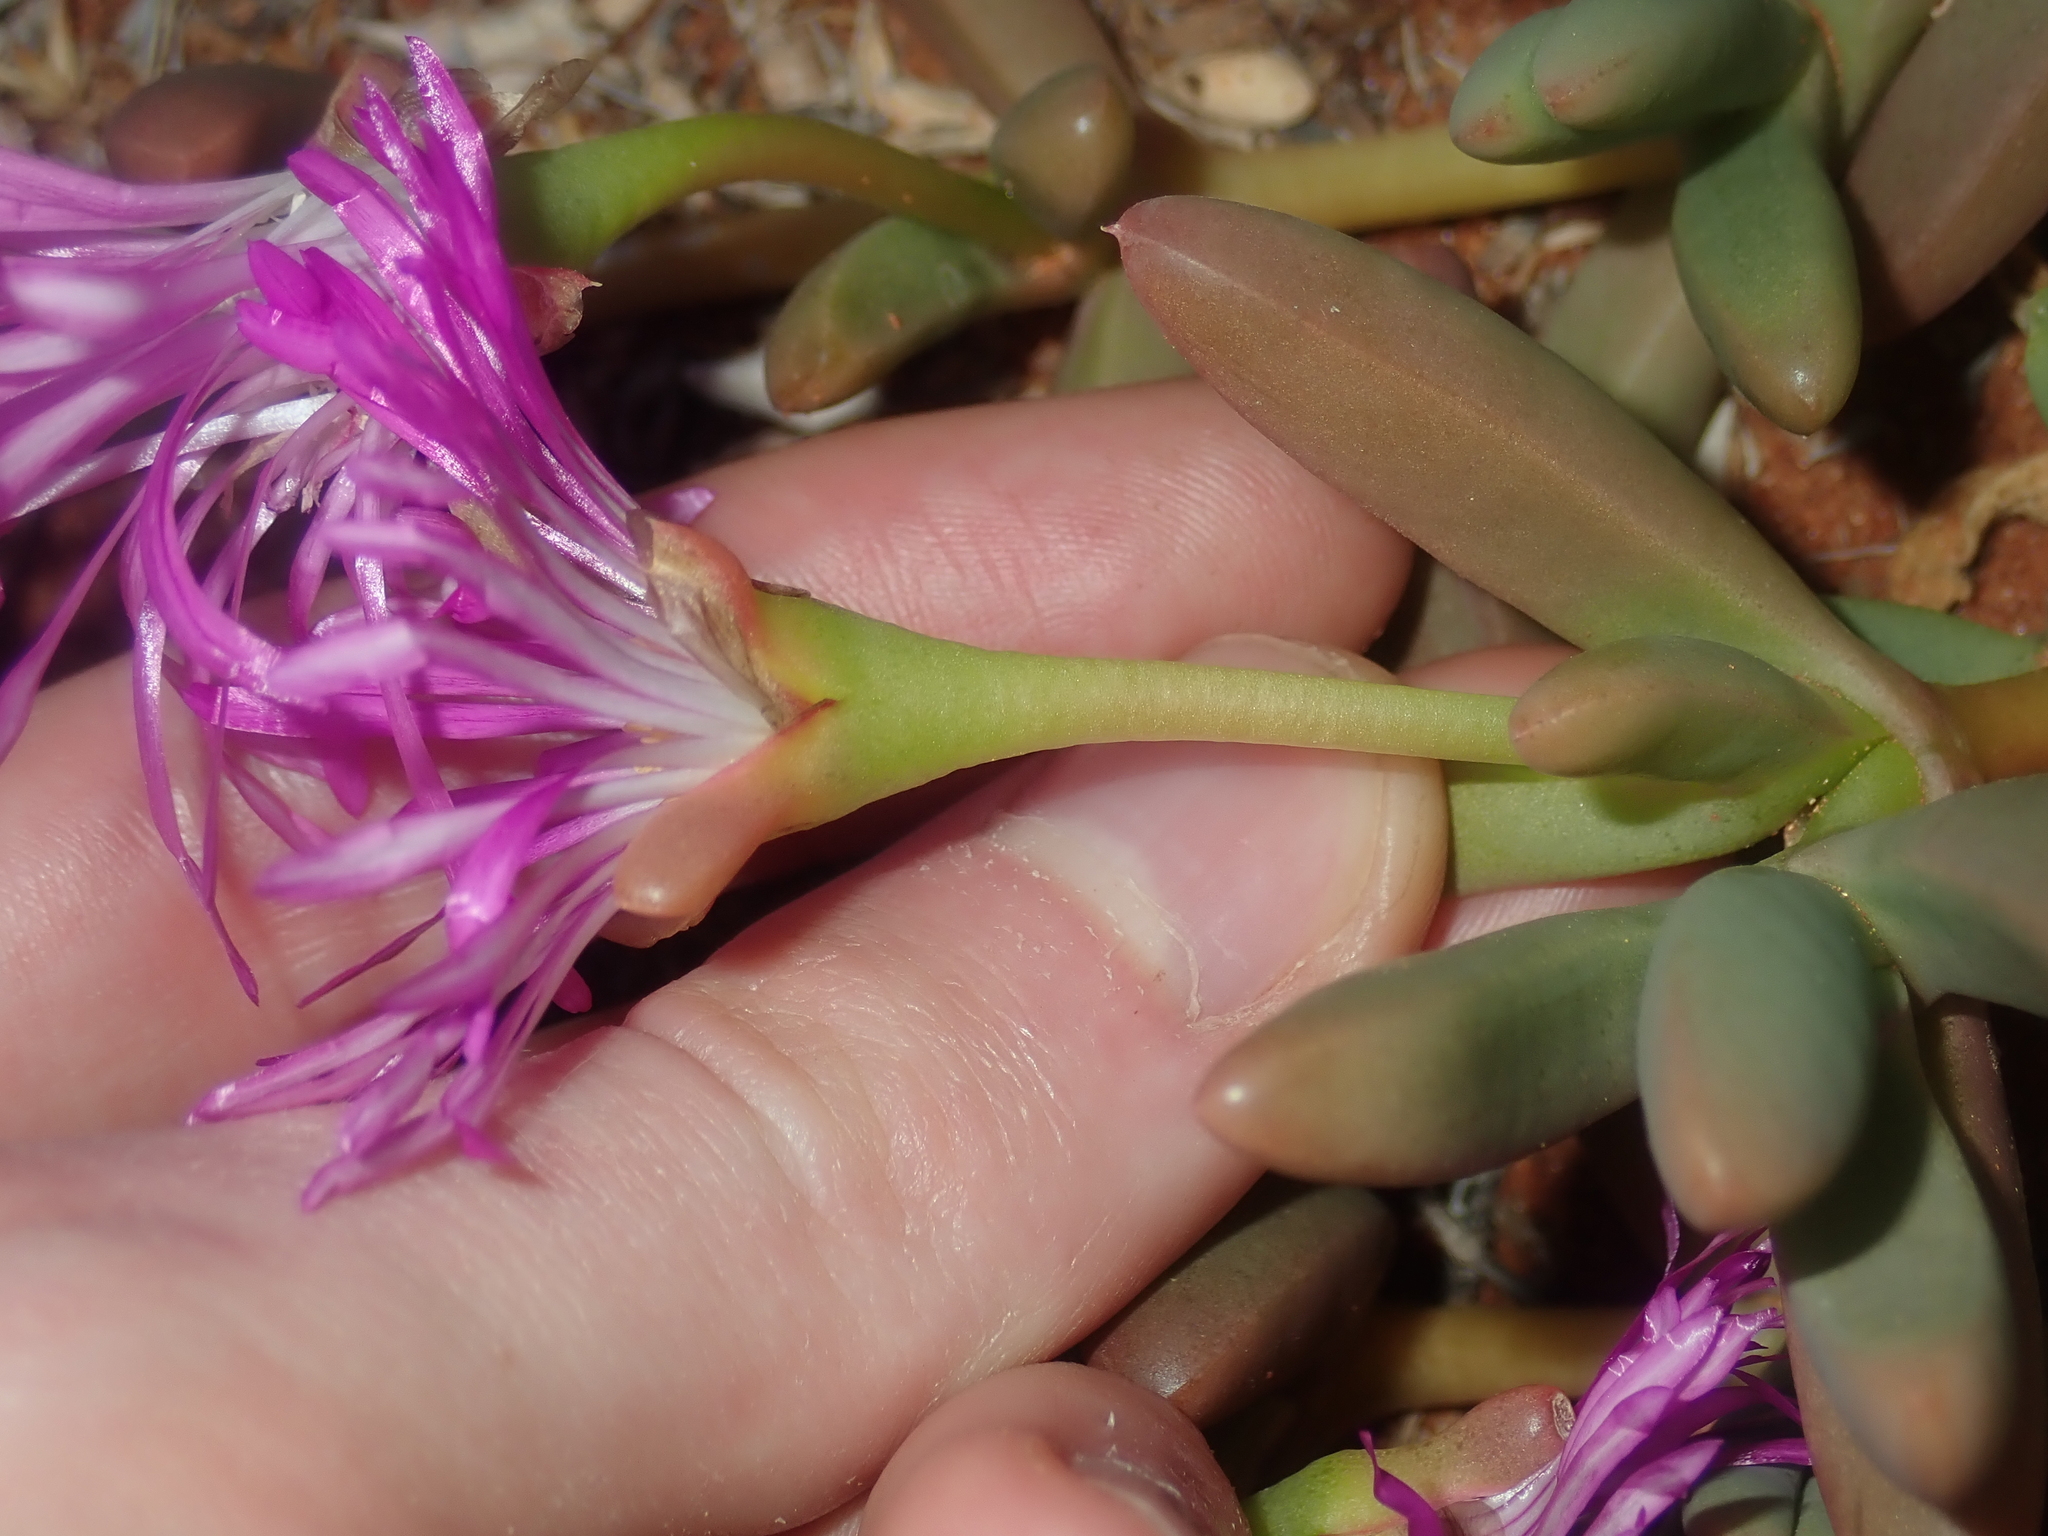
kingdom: Plantae
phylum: Tracheophyta
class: Magnoliopsida
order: Caryophyllales
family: Aizoaceae
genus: Disphyma
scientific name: Disphyma clavellatum
